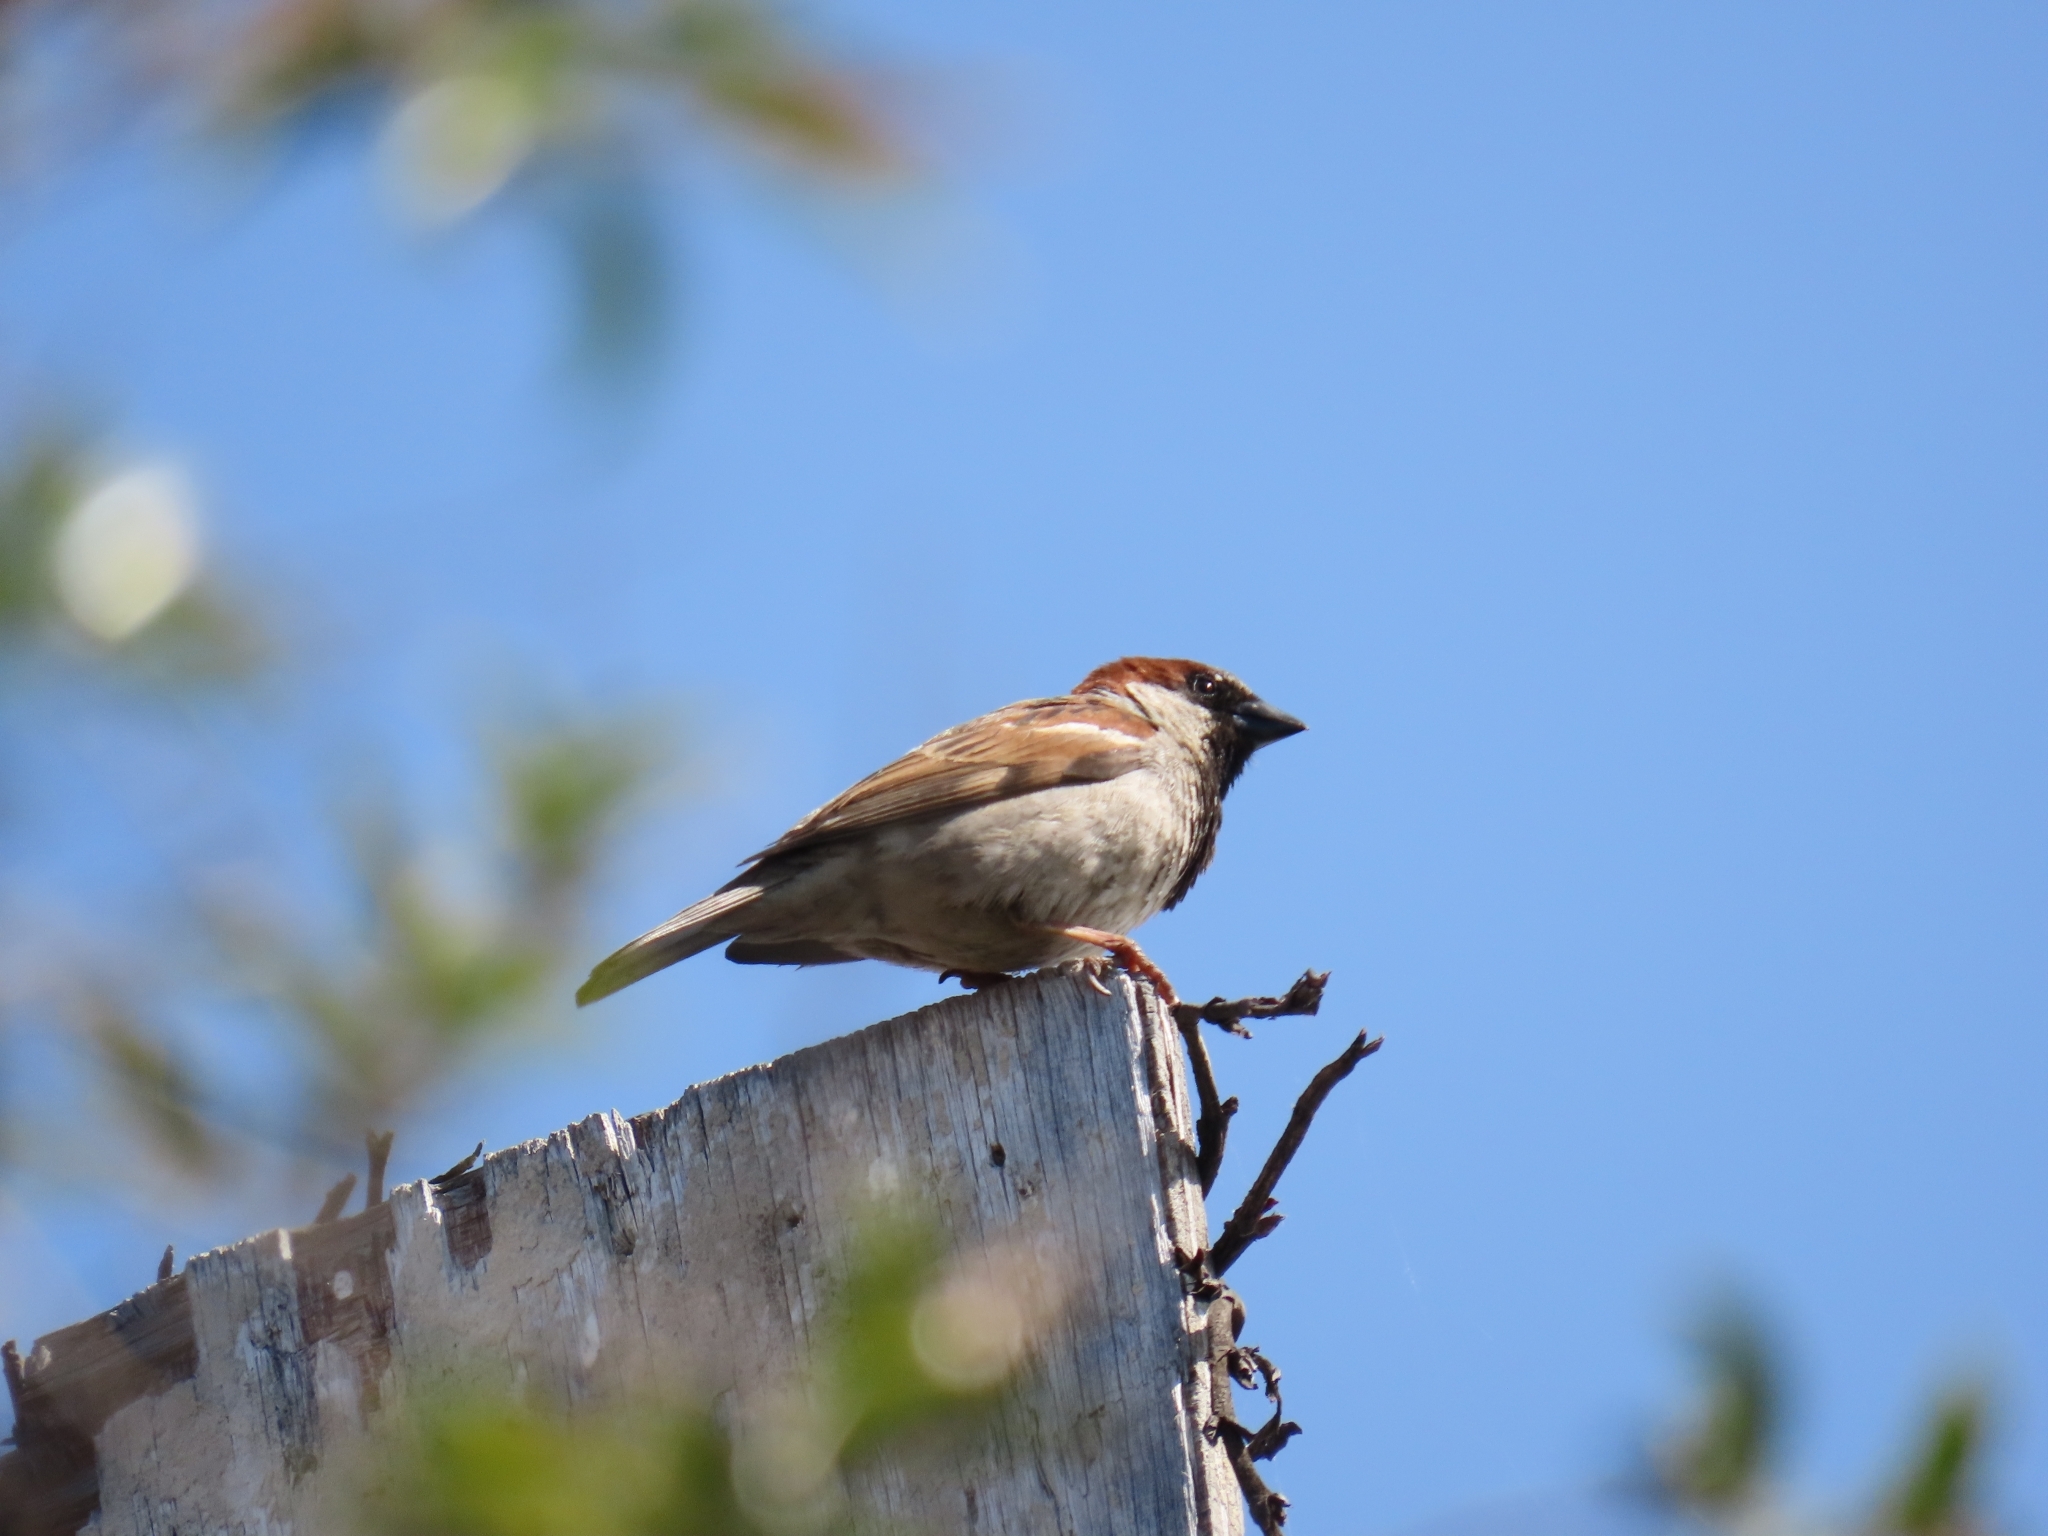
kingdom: Animalia
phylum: Chordata
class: Aves
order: Passeriformes
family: Passeridae
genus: Passer
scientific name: Passer domesticus
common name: House sparrow
